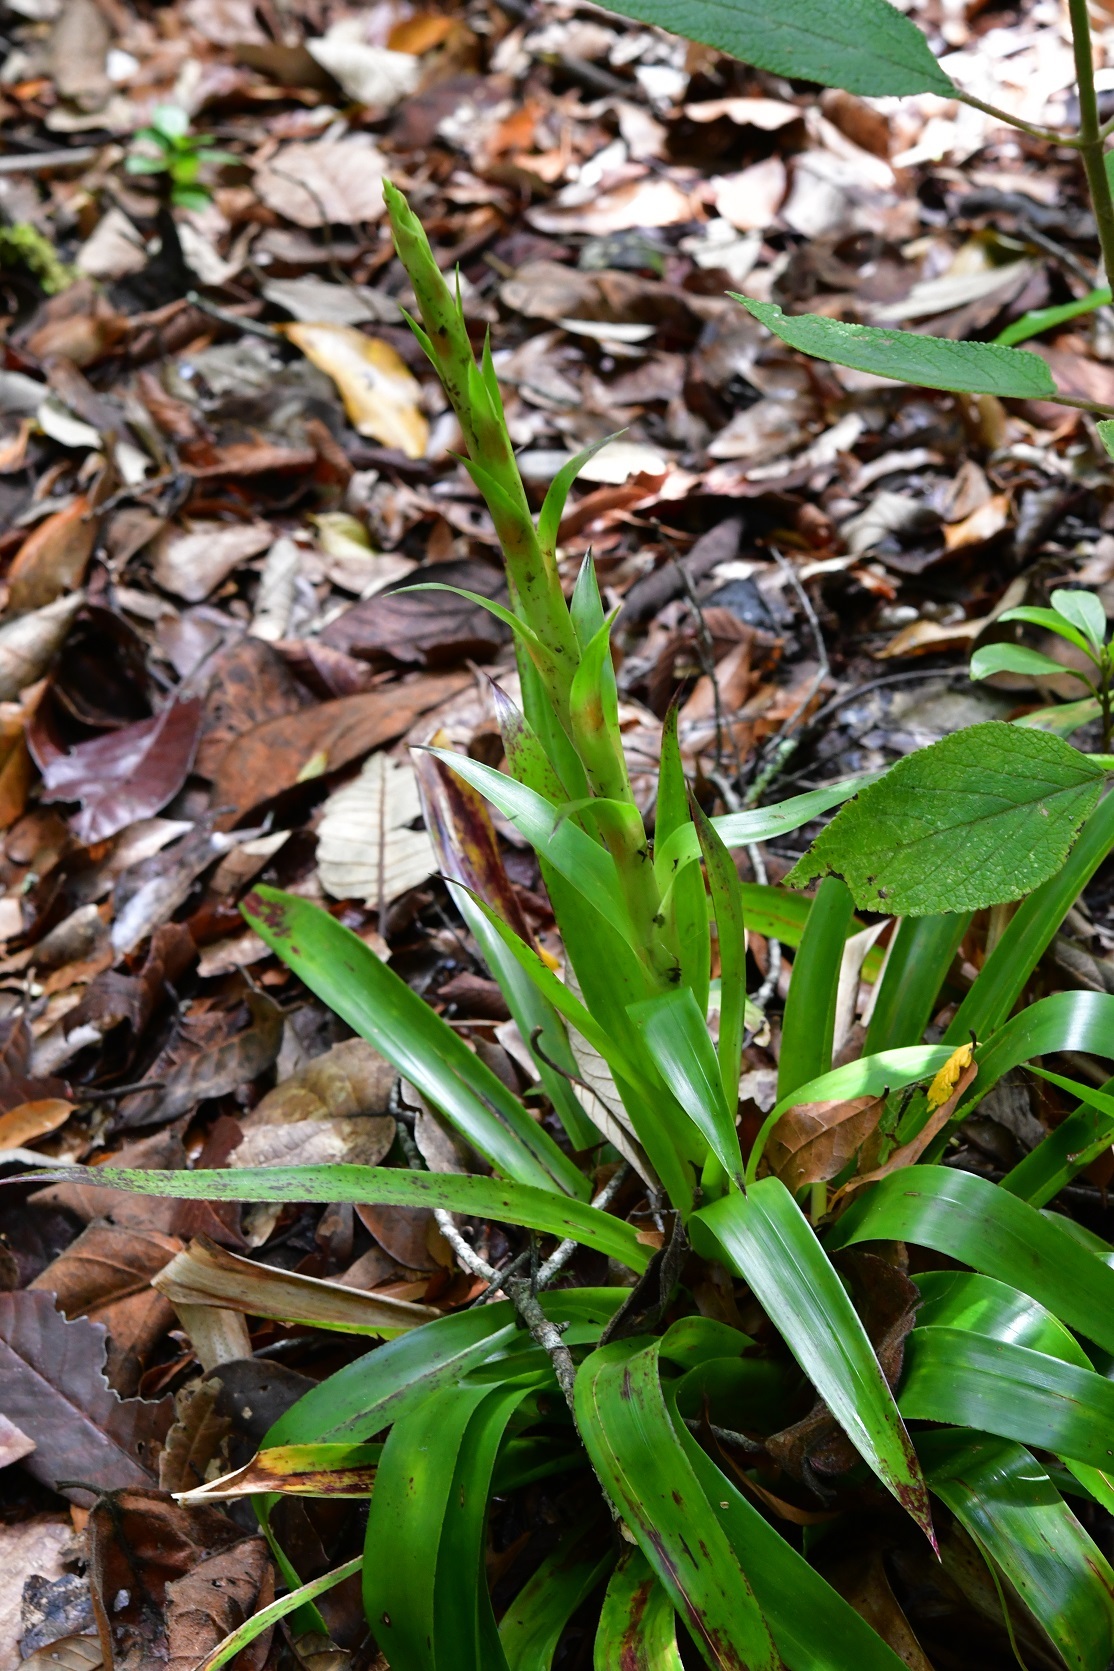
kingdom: Plantae
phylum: Tracheophyta
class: Liliopsida
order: Poales
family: Bromeliaceae
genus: Tillandsia
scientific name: Tillandsia guatemalensis
